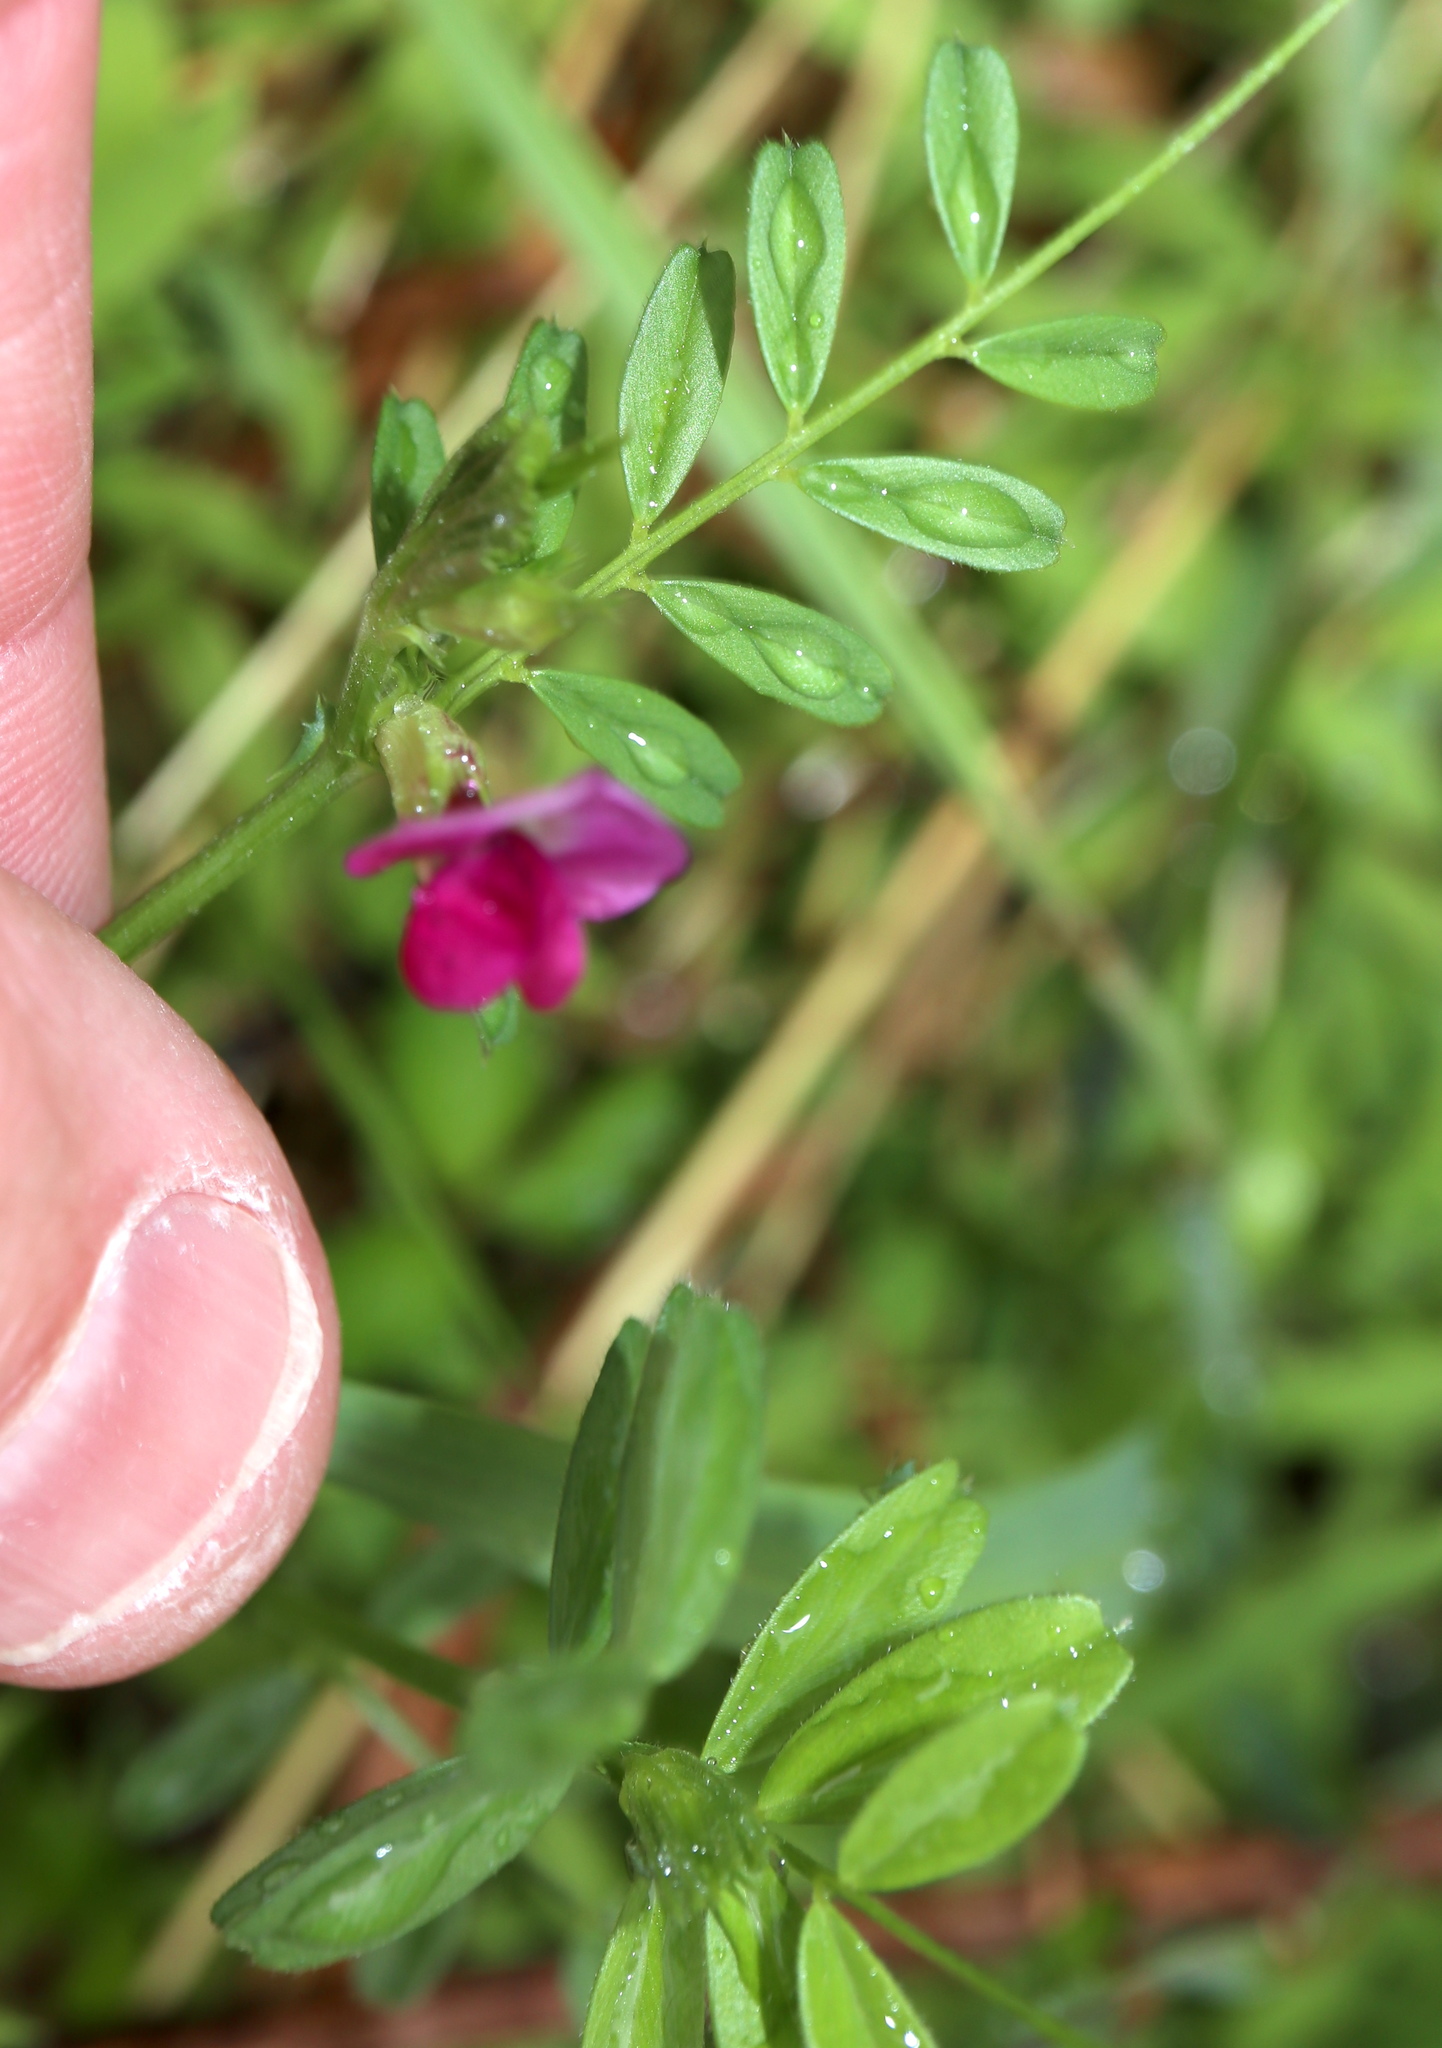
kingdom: Plantae
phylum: Tracheophyta
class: Magnoliopsida
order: Fabales
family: Fabaceae
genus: Vicia
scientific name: Vicia sativa
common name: Garden vetch
